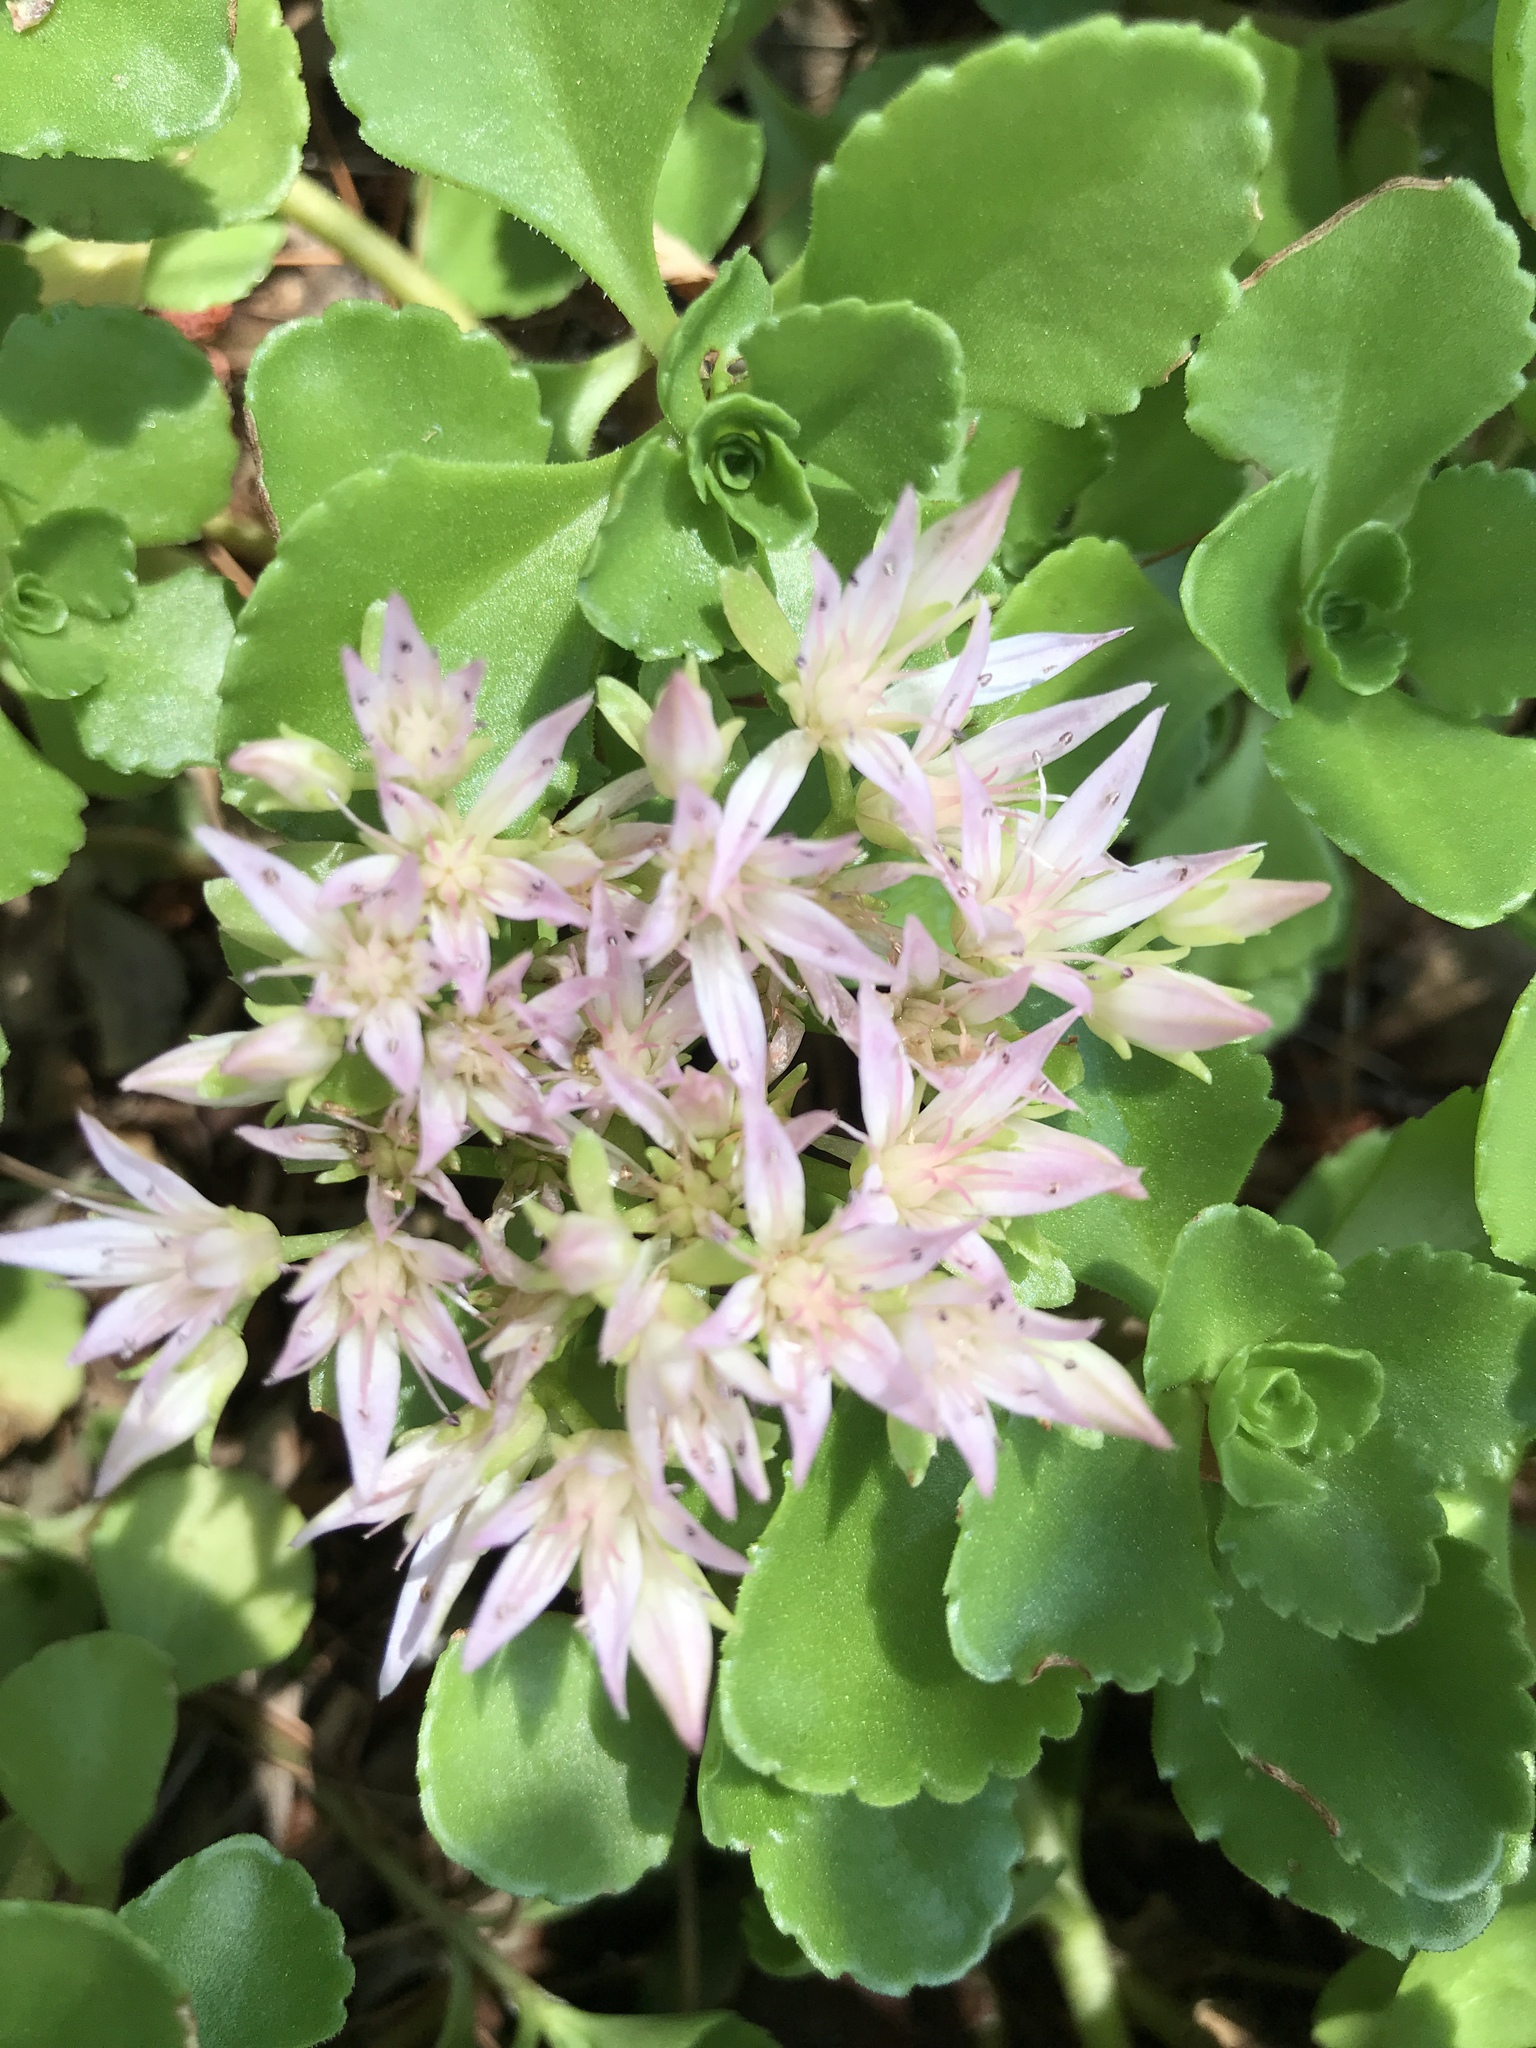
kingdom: Plantae
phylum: Tracheophyta
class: Magnoliopsida
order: Saxifragales
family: Crassulaceae
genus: Phedimus
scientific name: Phedimus spurius
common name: Caucasian stonecrop
